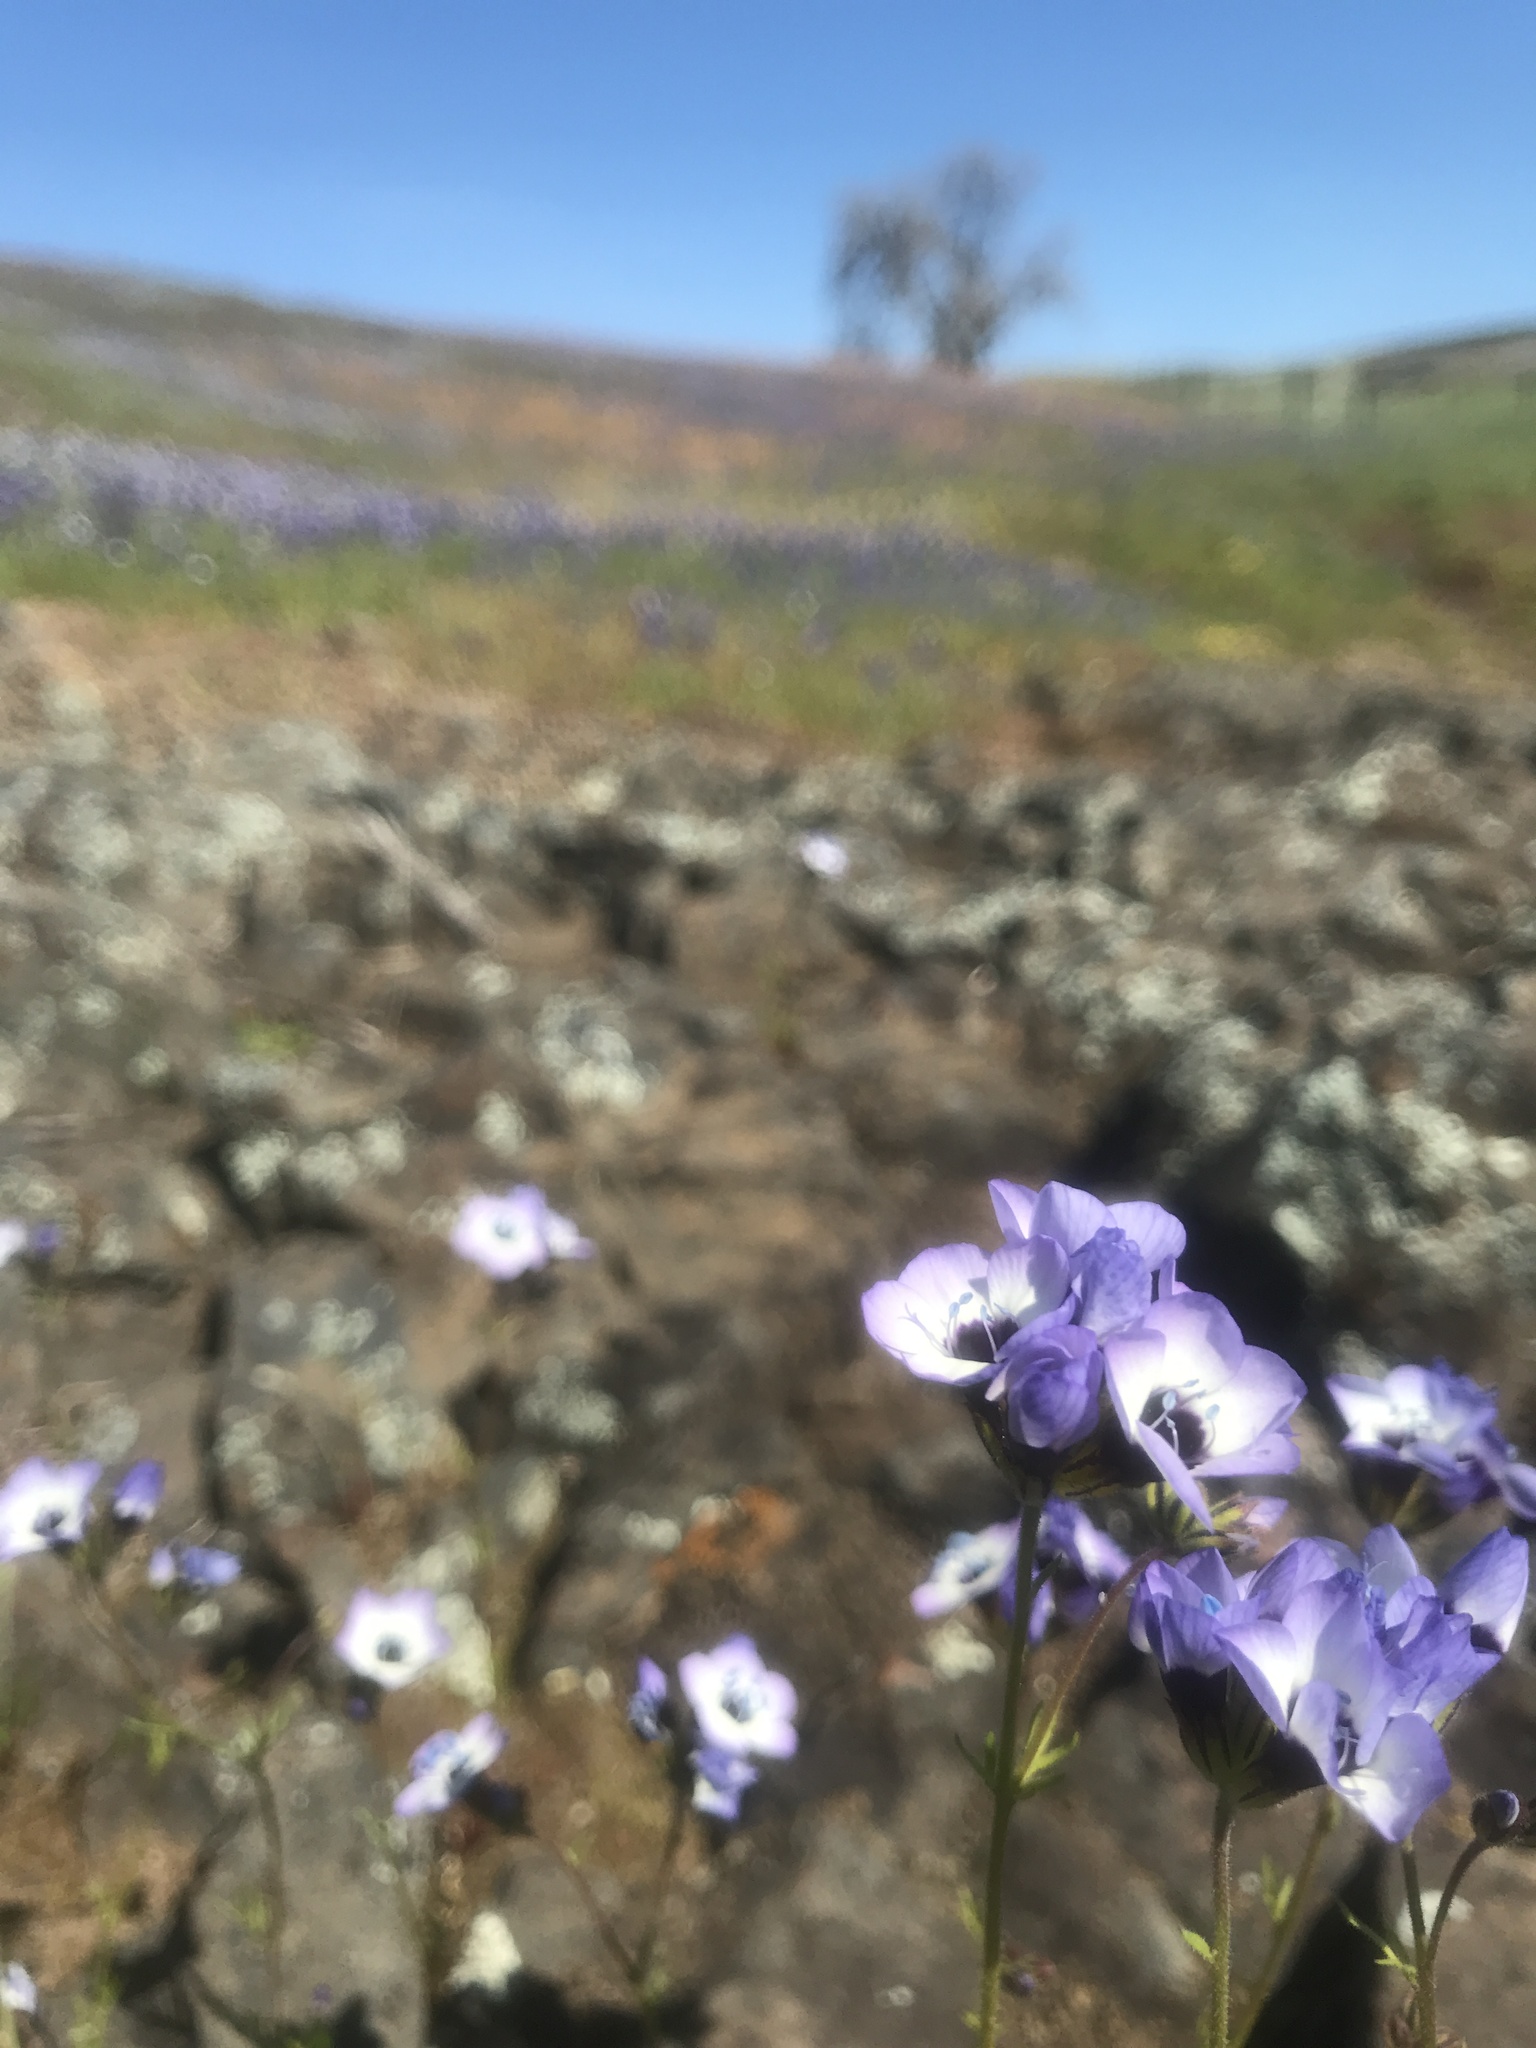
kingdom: Plantae
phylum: Tracheophyta
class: Magnoliopsida
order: Ericales
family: Polemoniaceae
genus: Gilia
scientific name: Gilia tricolor
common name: Bird's-eyes
